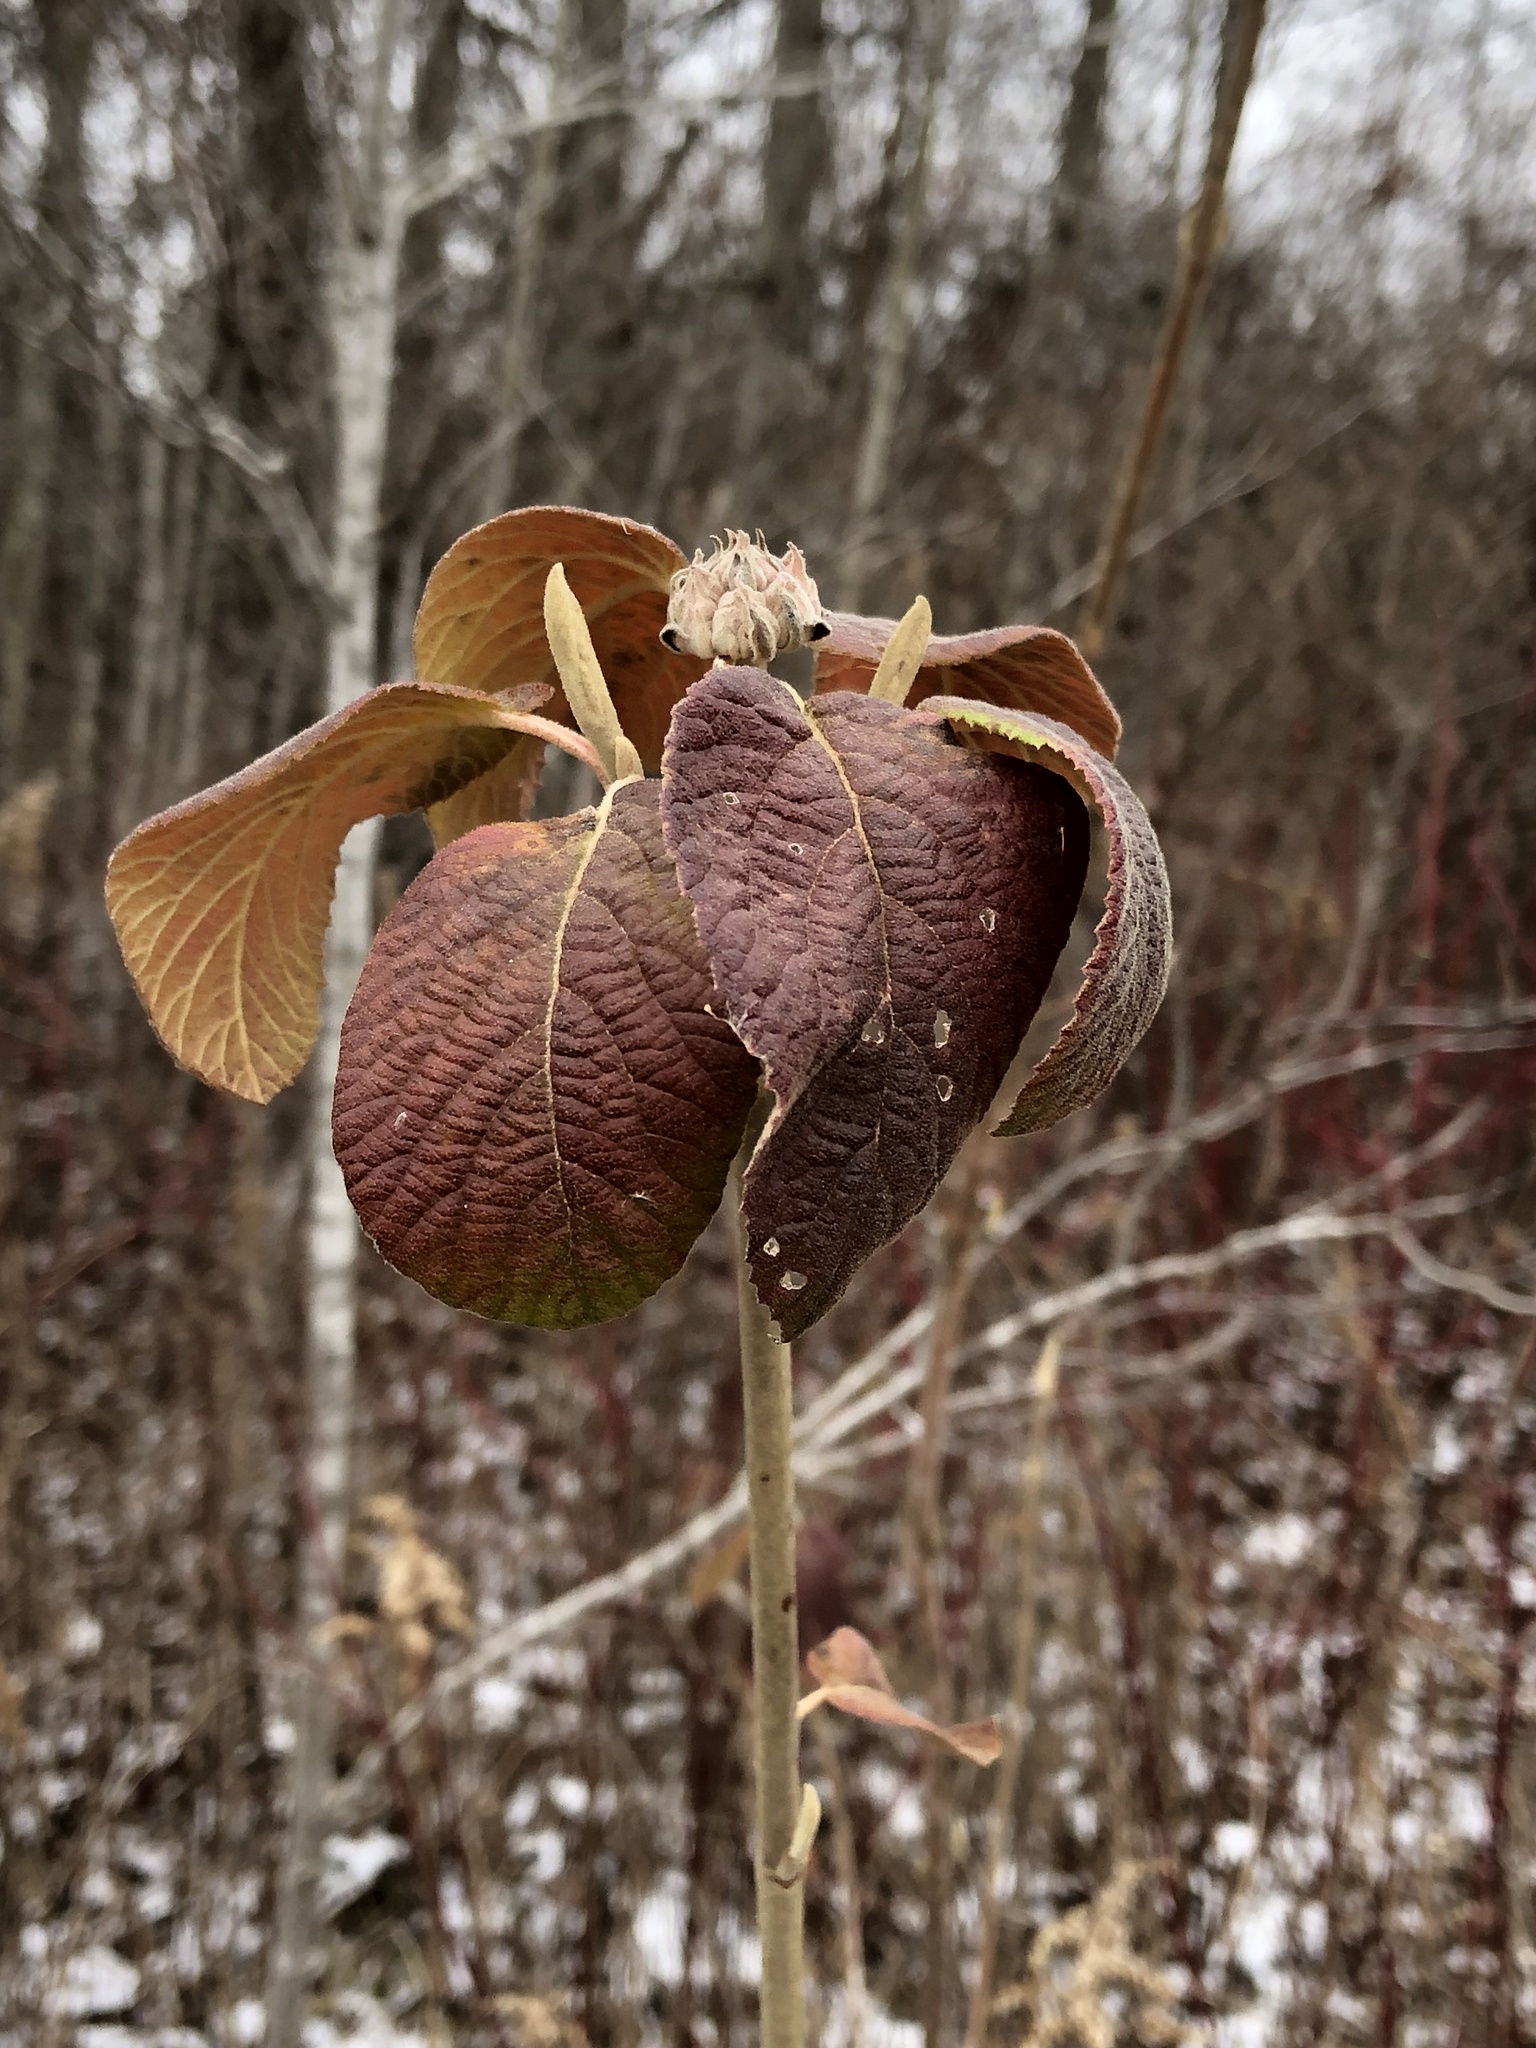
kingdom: Plantae
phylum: Tracheophyta
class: Magnoliopsida
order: Dipsacales
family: Viburnaceae
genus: Viburnum
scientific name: Viburnum lantana
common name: Wayfaring tree
